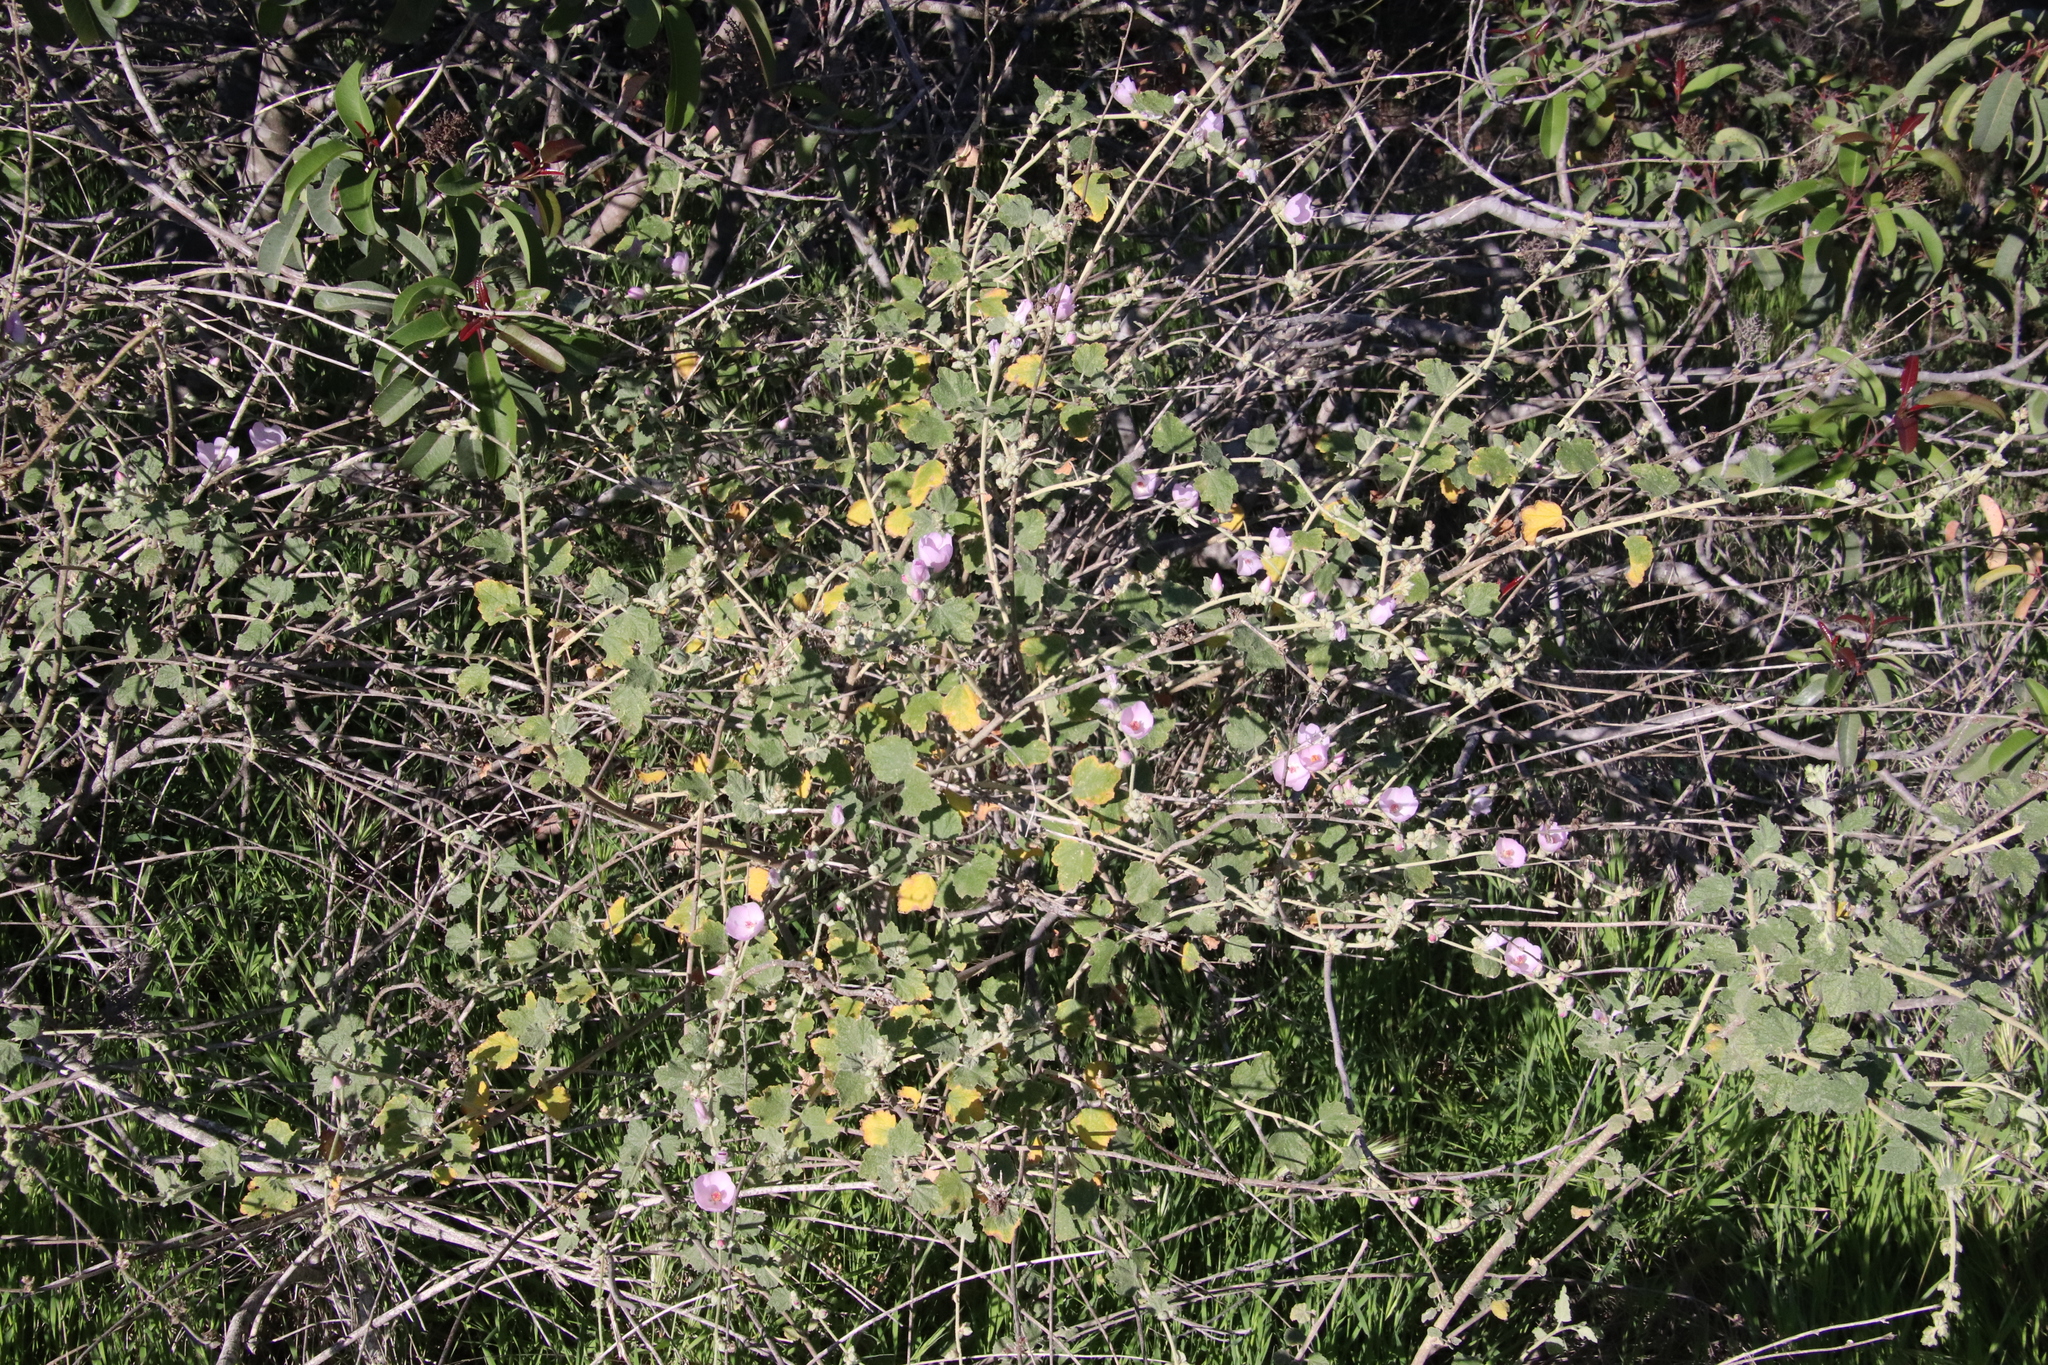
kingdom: Plantae
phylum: Tracheophyta
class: Magnoliopsida
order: Malvales
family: Malvaceae
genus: Malacothamnus
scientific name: Malacothamnus fasciculatus
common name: Sant cruz island bush-mallow
